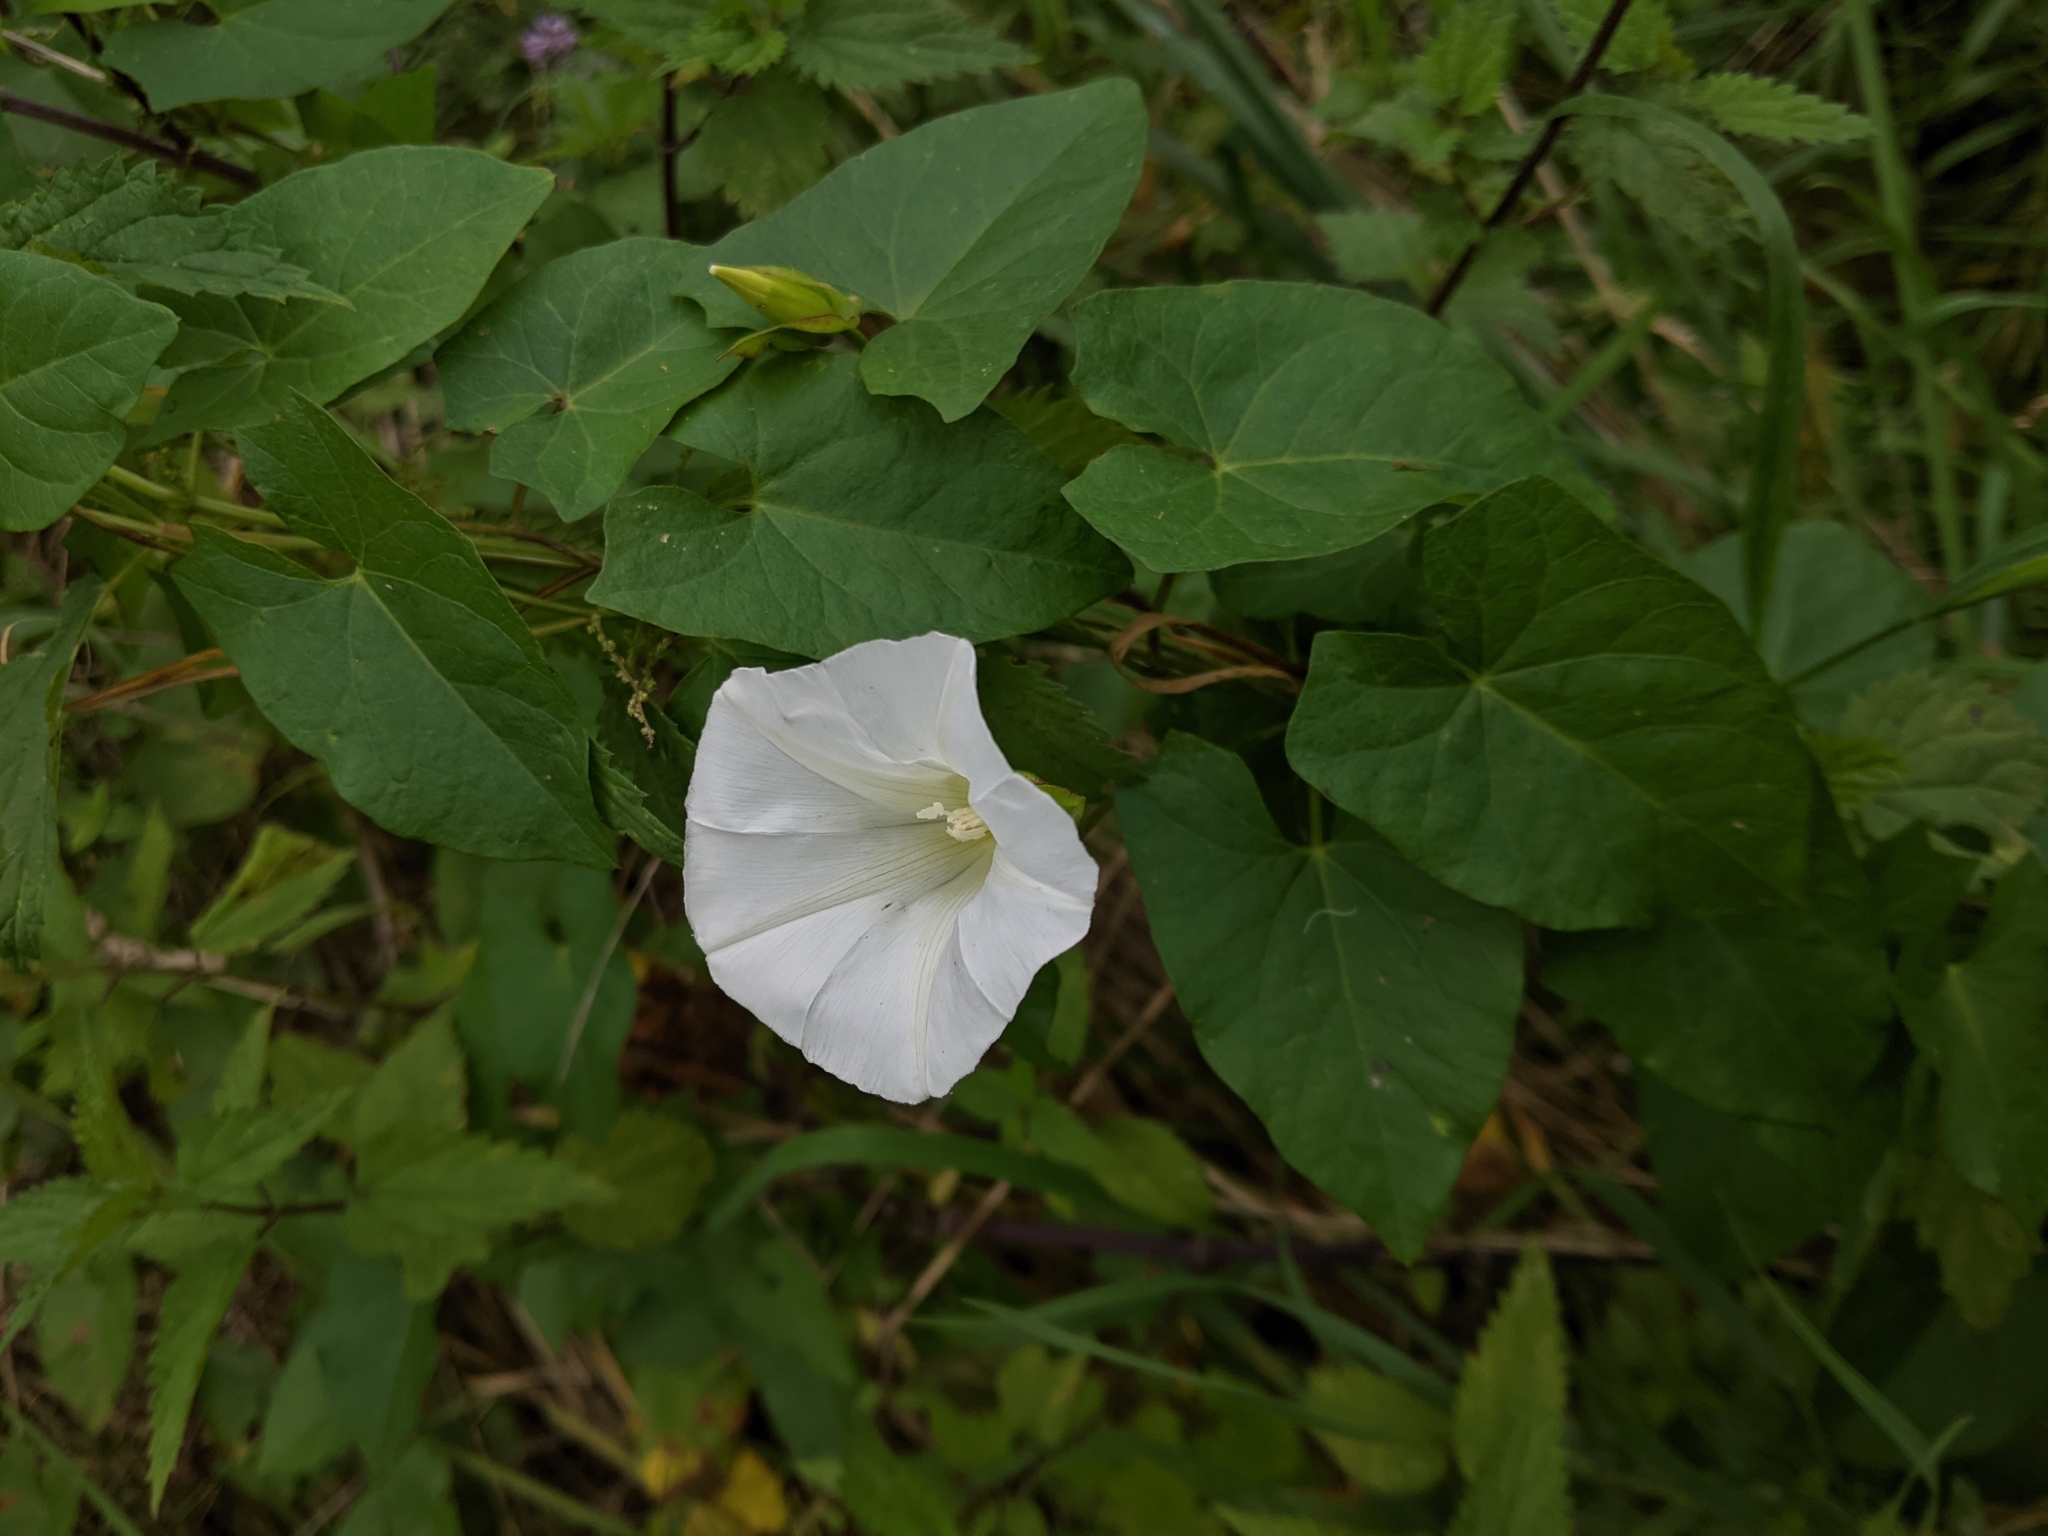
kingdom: Plantae
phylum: Tracheophyta
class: Magnoliopsida
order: Solanales
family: Convolvulaceae
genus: Calystegia
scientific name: Calystegia sepium
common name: Hedge bindweed
